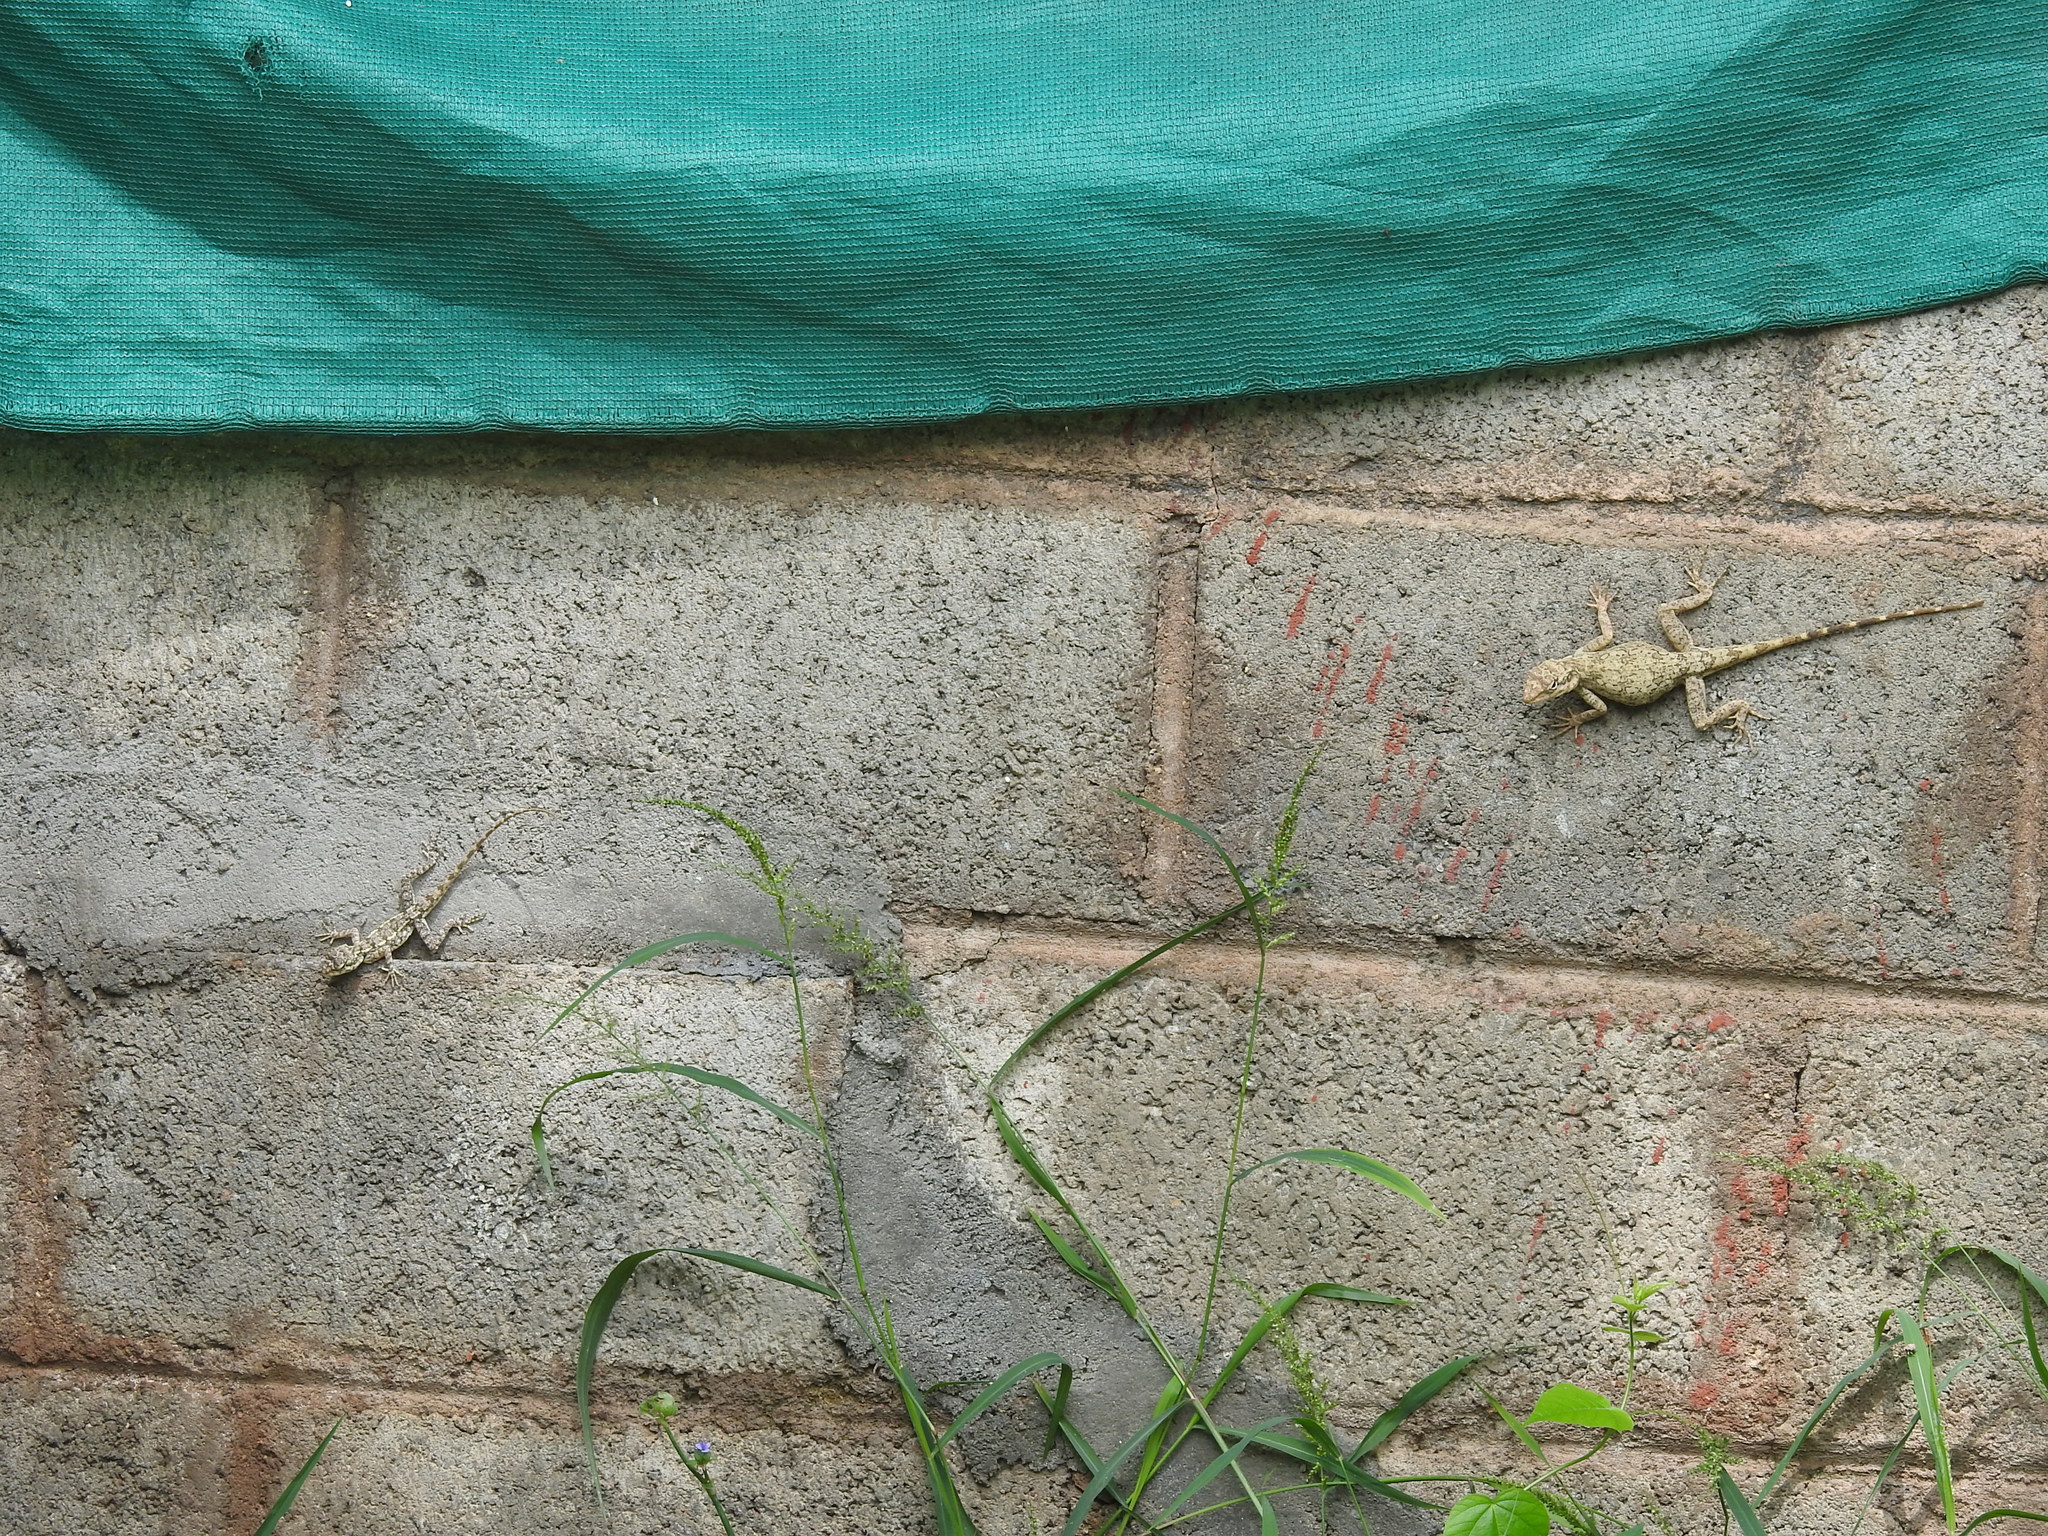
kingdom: Animalia
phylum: Chordata
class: Squamata
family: Agamidae
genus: Psammophilus
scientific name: Psammophilus dorsalis
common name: South indian rock agama
